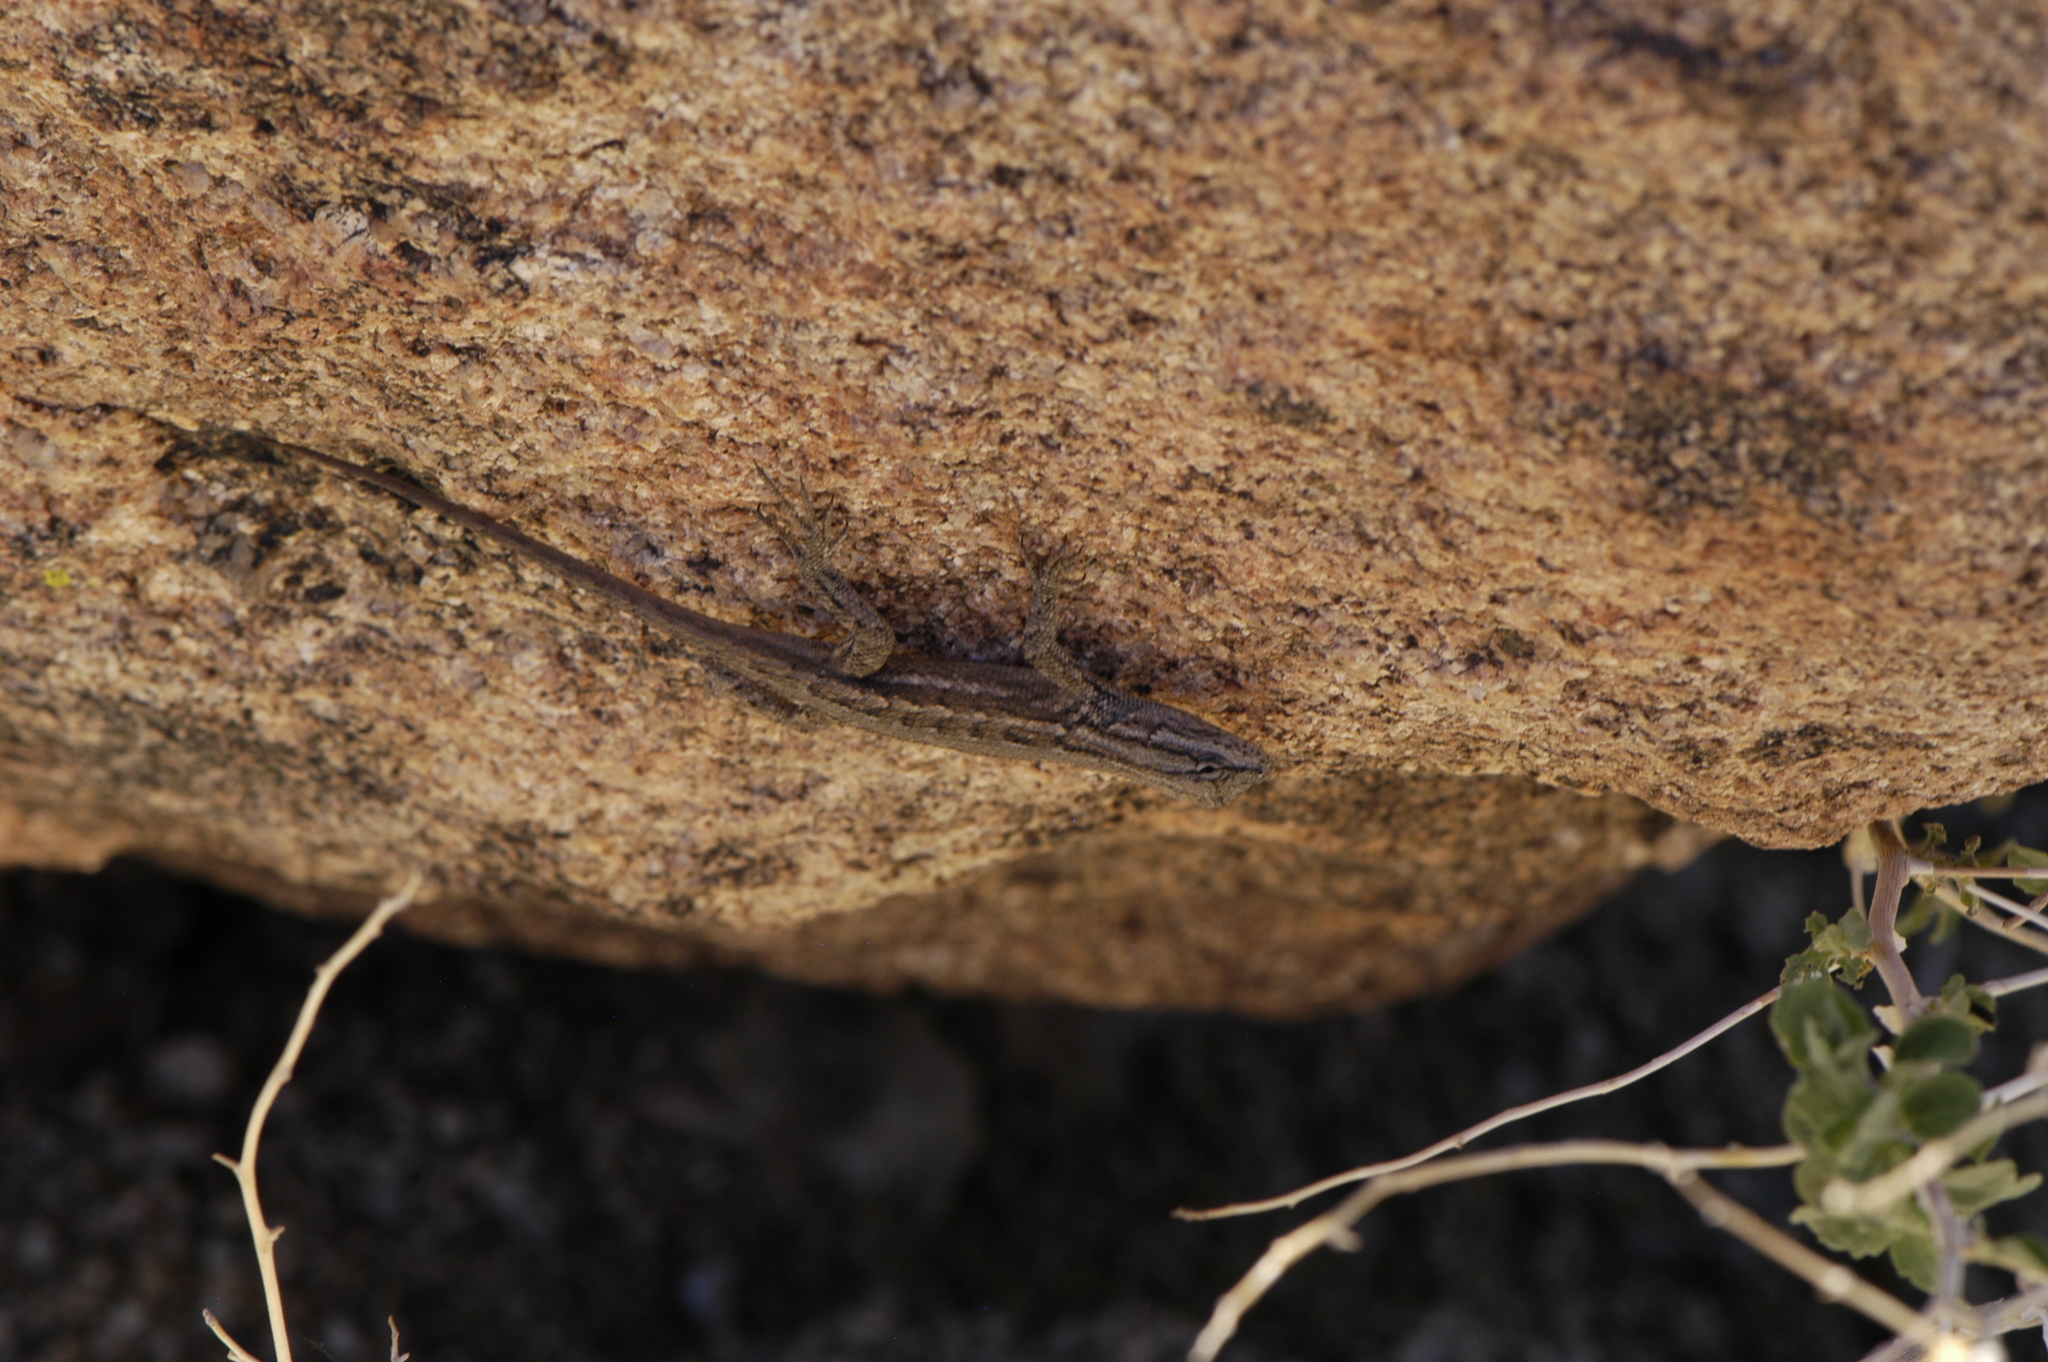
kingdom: Animalia
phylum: Chordata
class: Squamata
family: Phrynosomatidae
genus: Sceloporus
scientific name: Sceloporus cowlesi
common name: White sands prairie lizard
